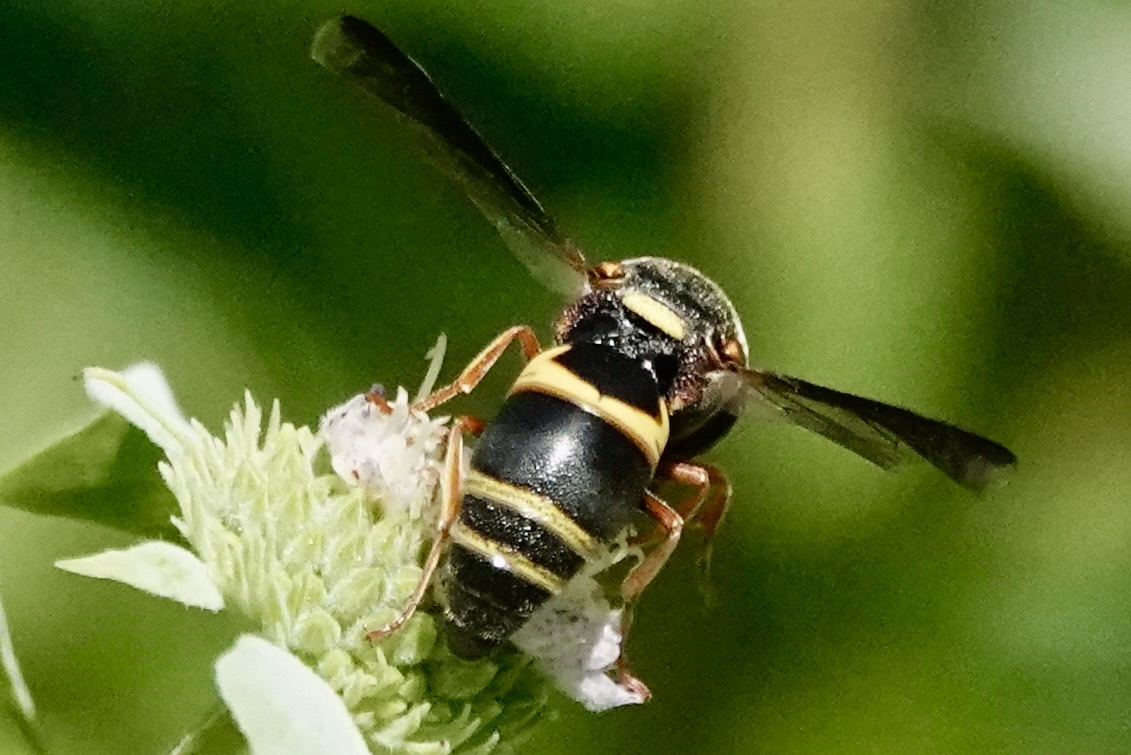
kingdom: Animalia
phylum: Arthropoda
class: Insecta
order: Hymenoptera
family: Eumenidae
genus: Euodynerus
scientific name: Euodynerus hidalgo
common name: Wasp
